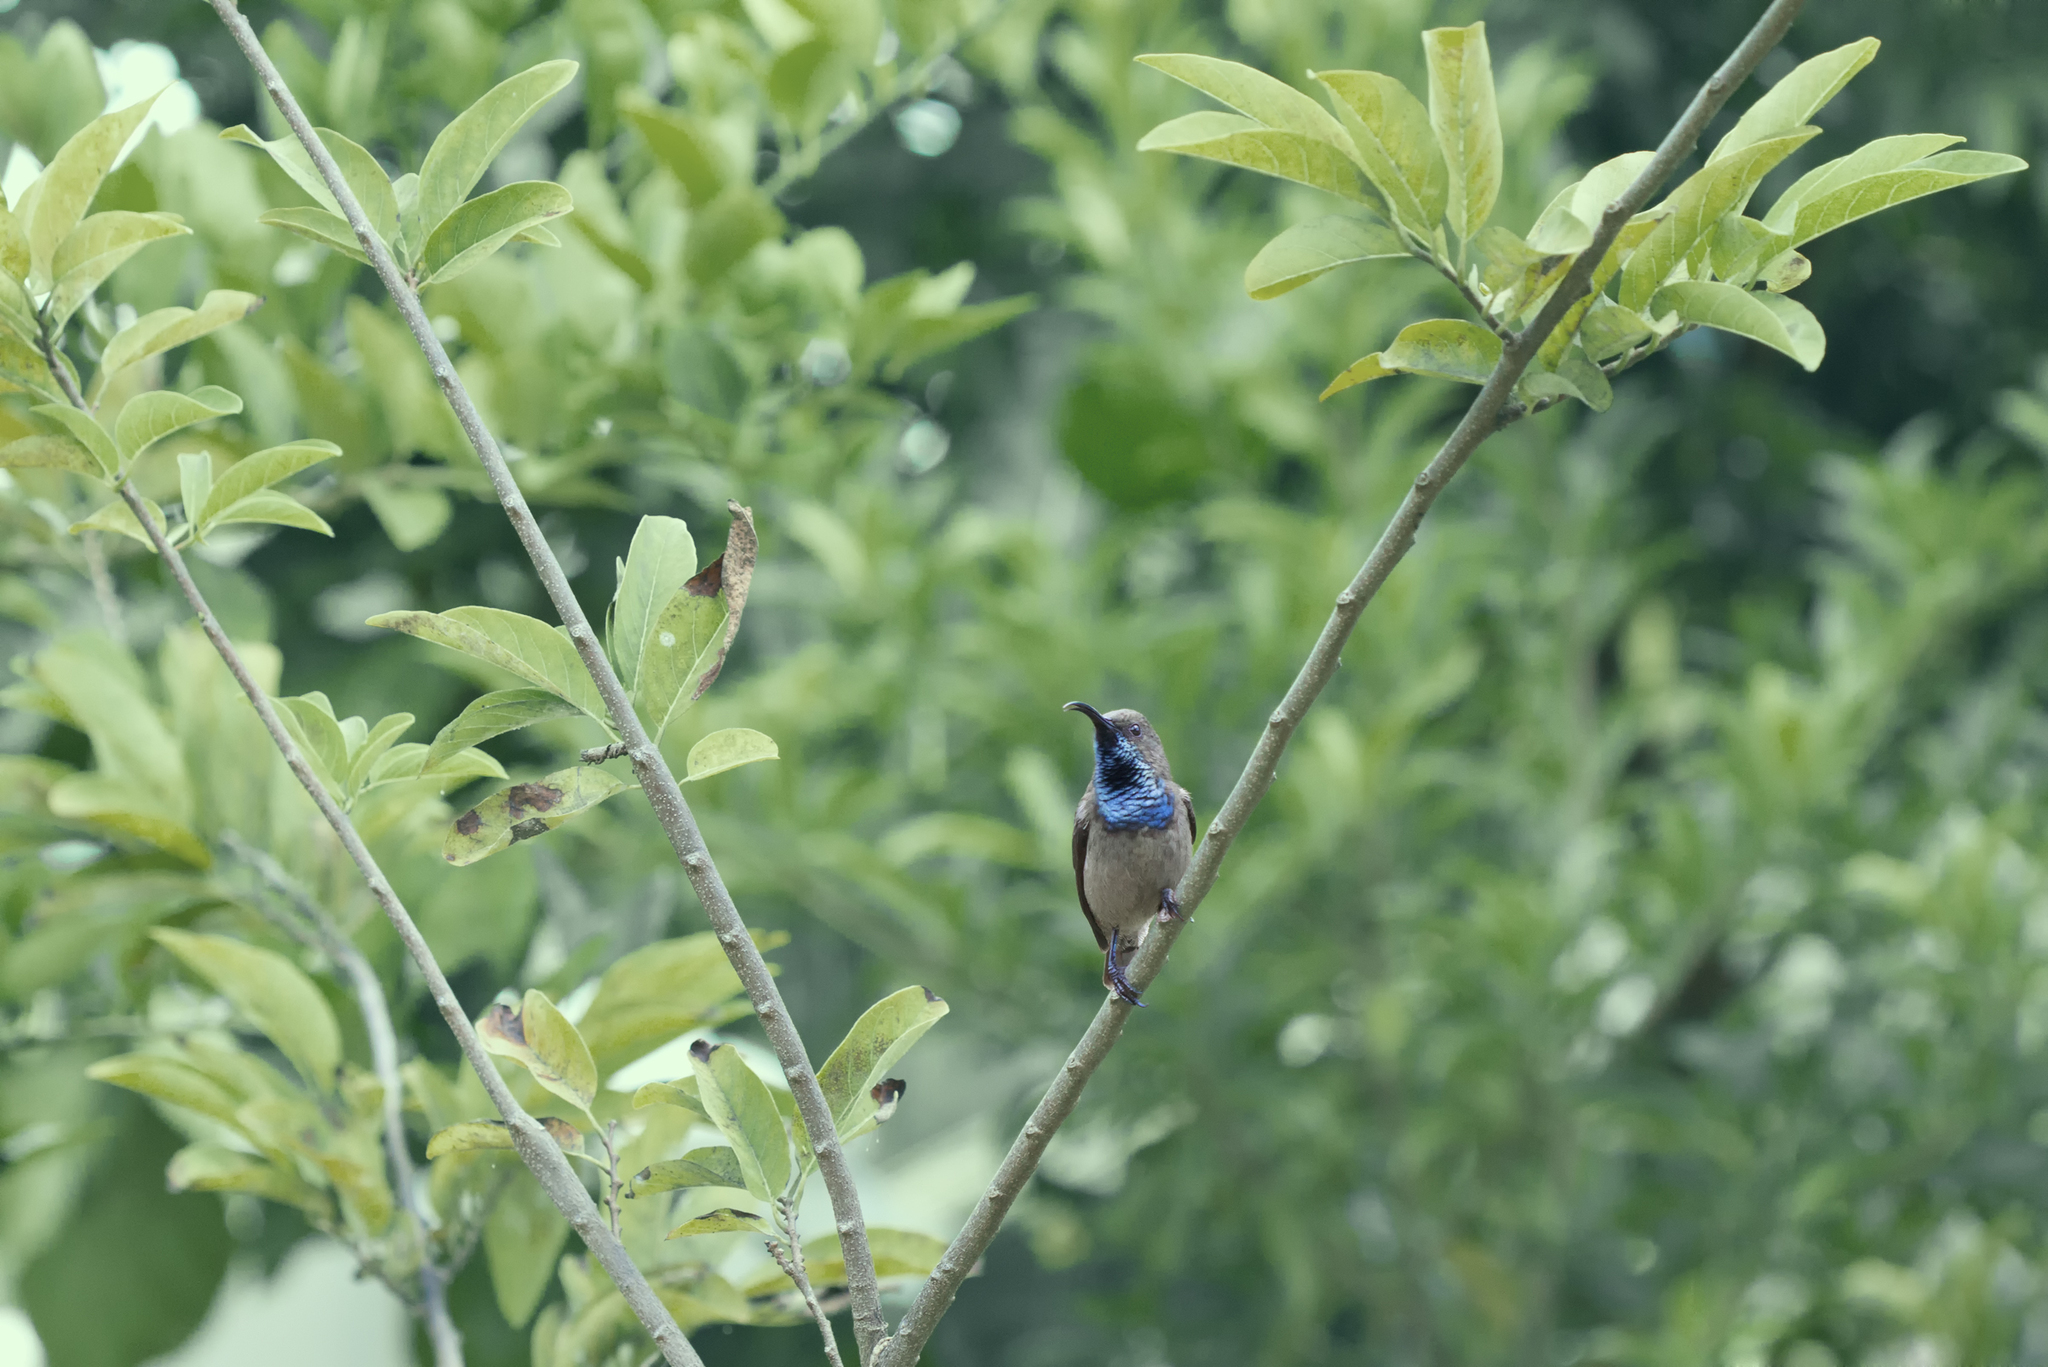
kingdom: Animalia
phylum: Chordata
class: Aves
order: Passeriformes
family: Nectariniidae
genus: Cinnyris
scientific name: Cinnyris dussumieri
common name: Seychelles sunbird
